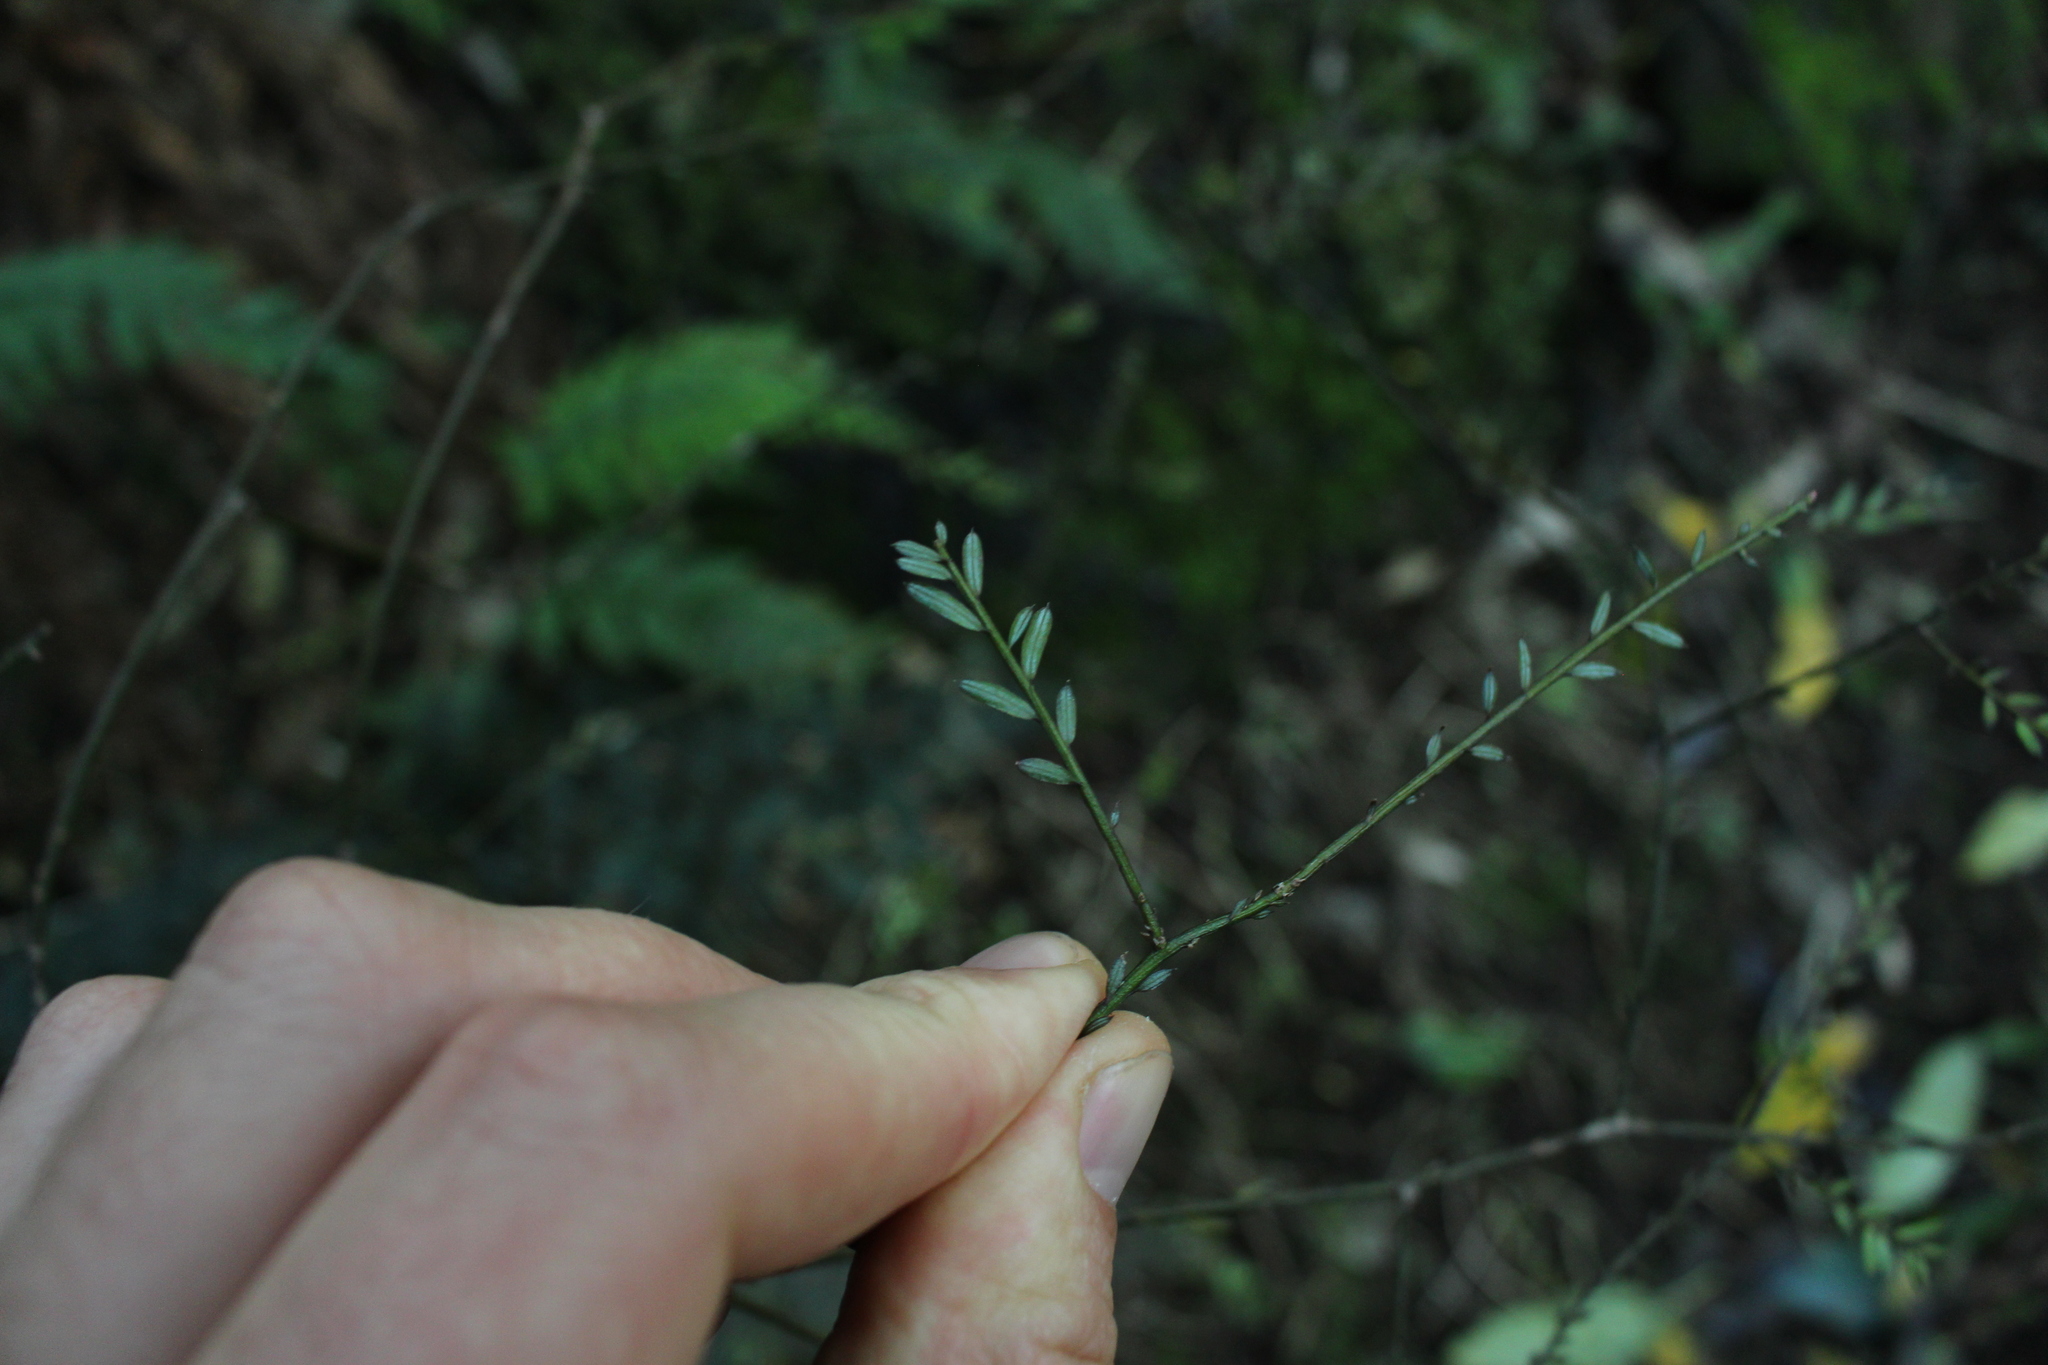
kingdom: Plantae
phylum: Tracheophyta
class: Pinopsida
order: Pinales
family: Podocarpaceae
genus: Prumnopitys
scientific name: Prumnopitys taxifolia
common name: Matai
